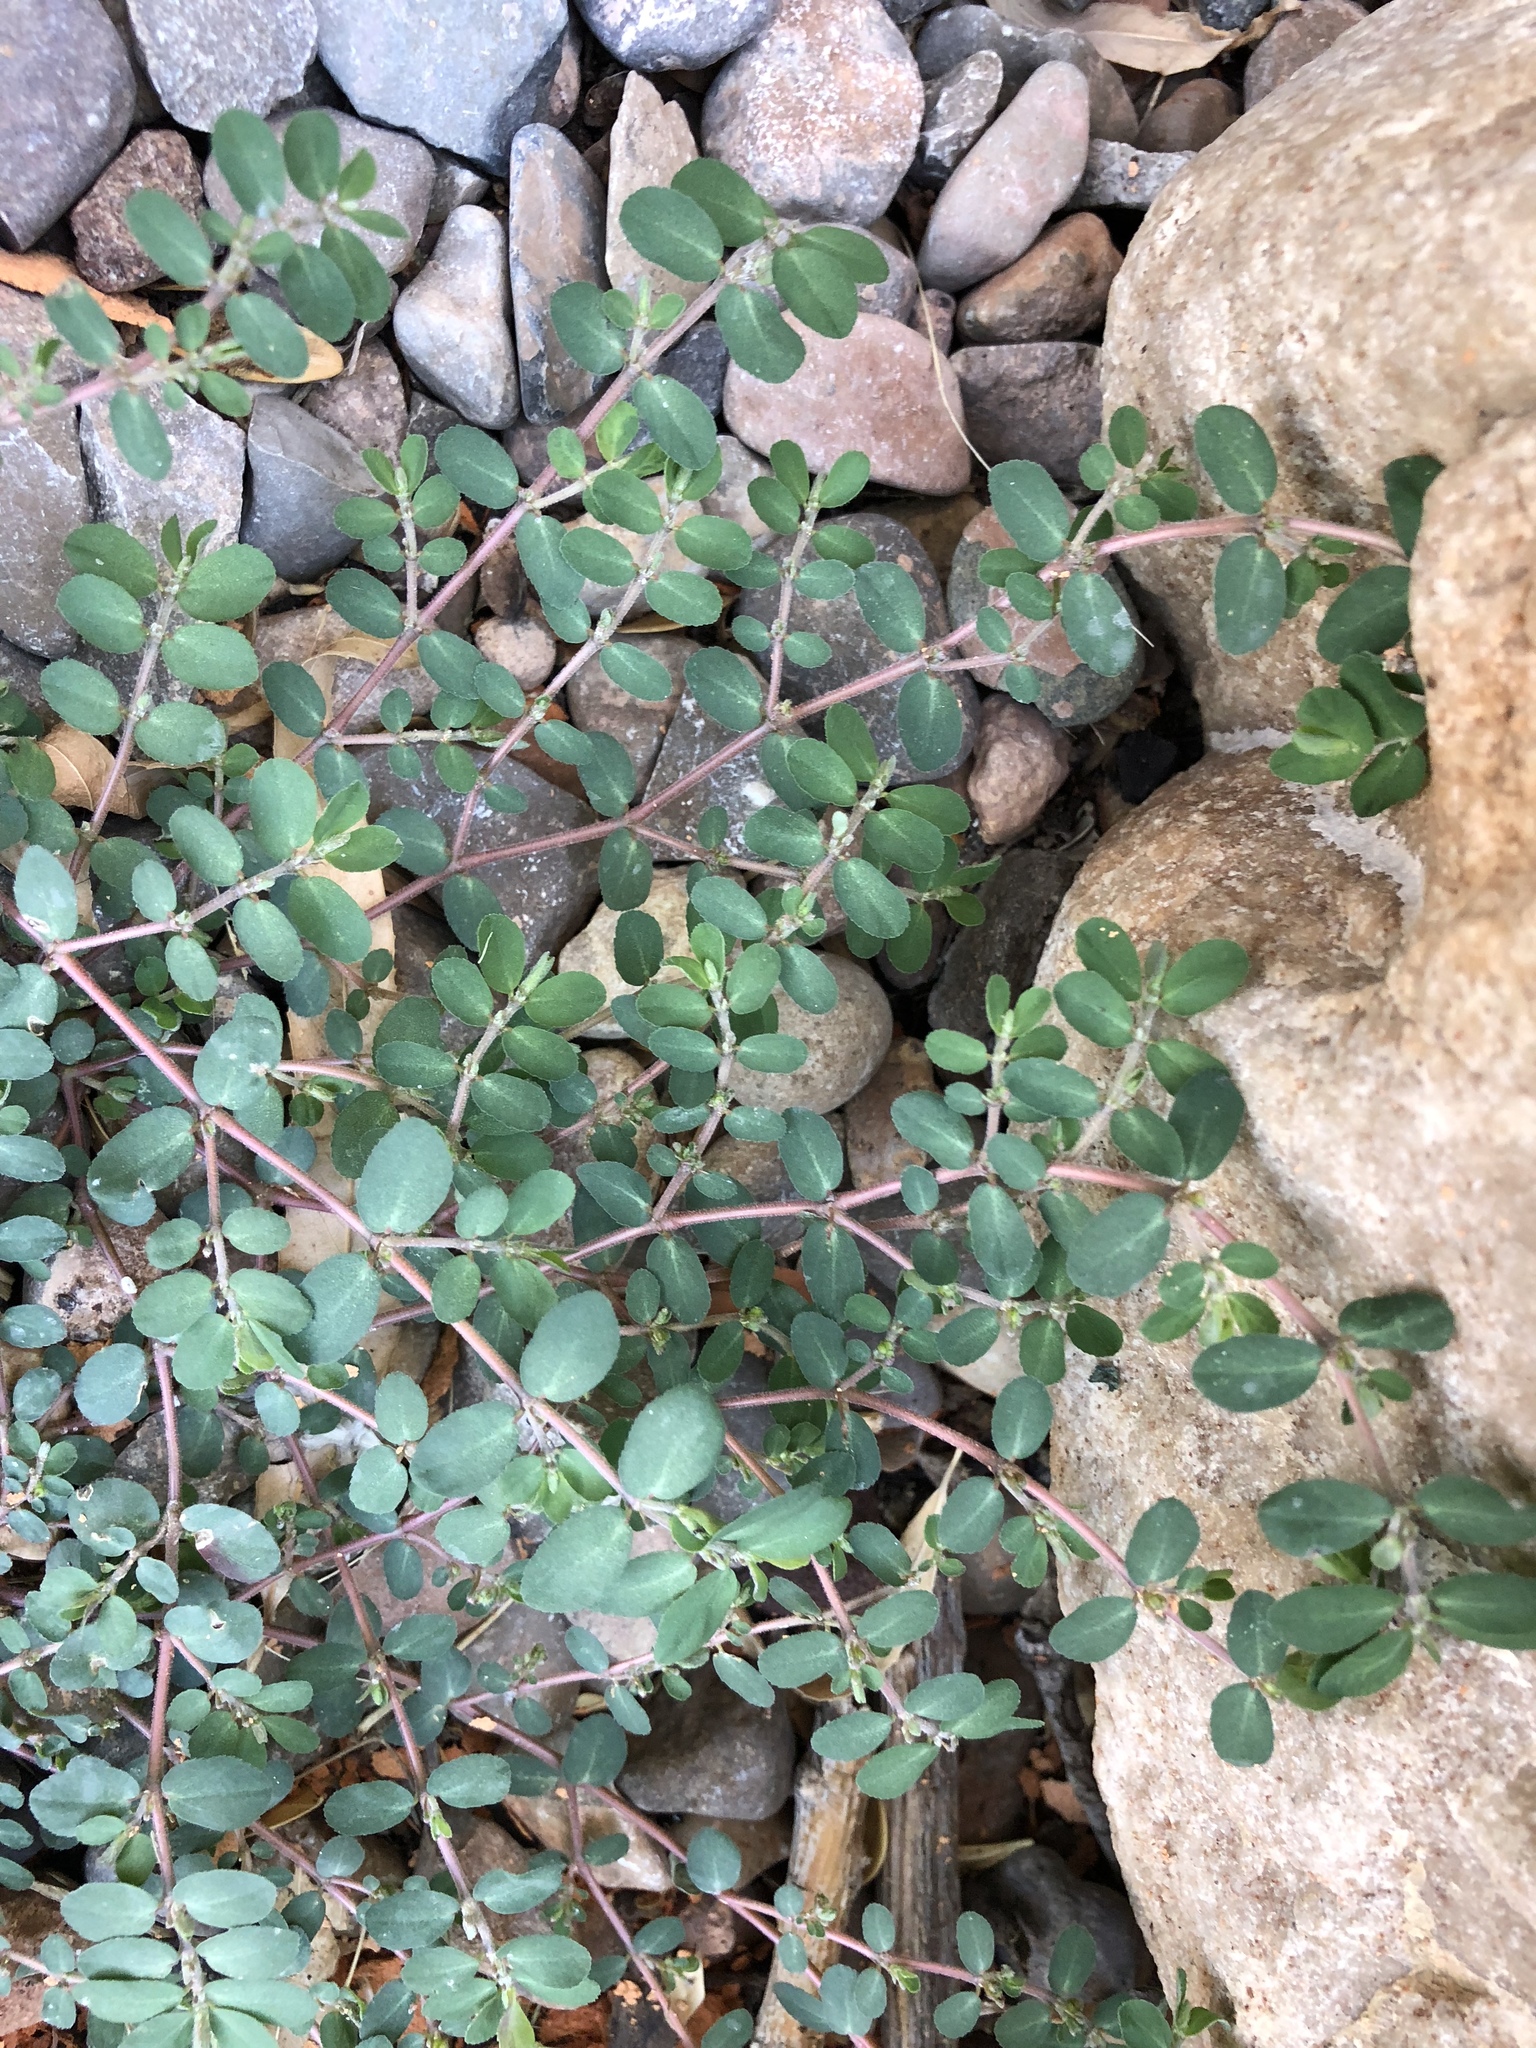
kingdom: Plantae
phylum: Tracheophyta
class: Magnoliopsida
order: Malpighiales
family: Euphorbiaceae
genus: Euphorbia
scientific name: Euphorbia prostrata
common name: Prostrate sandmat
